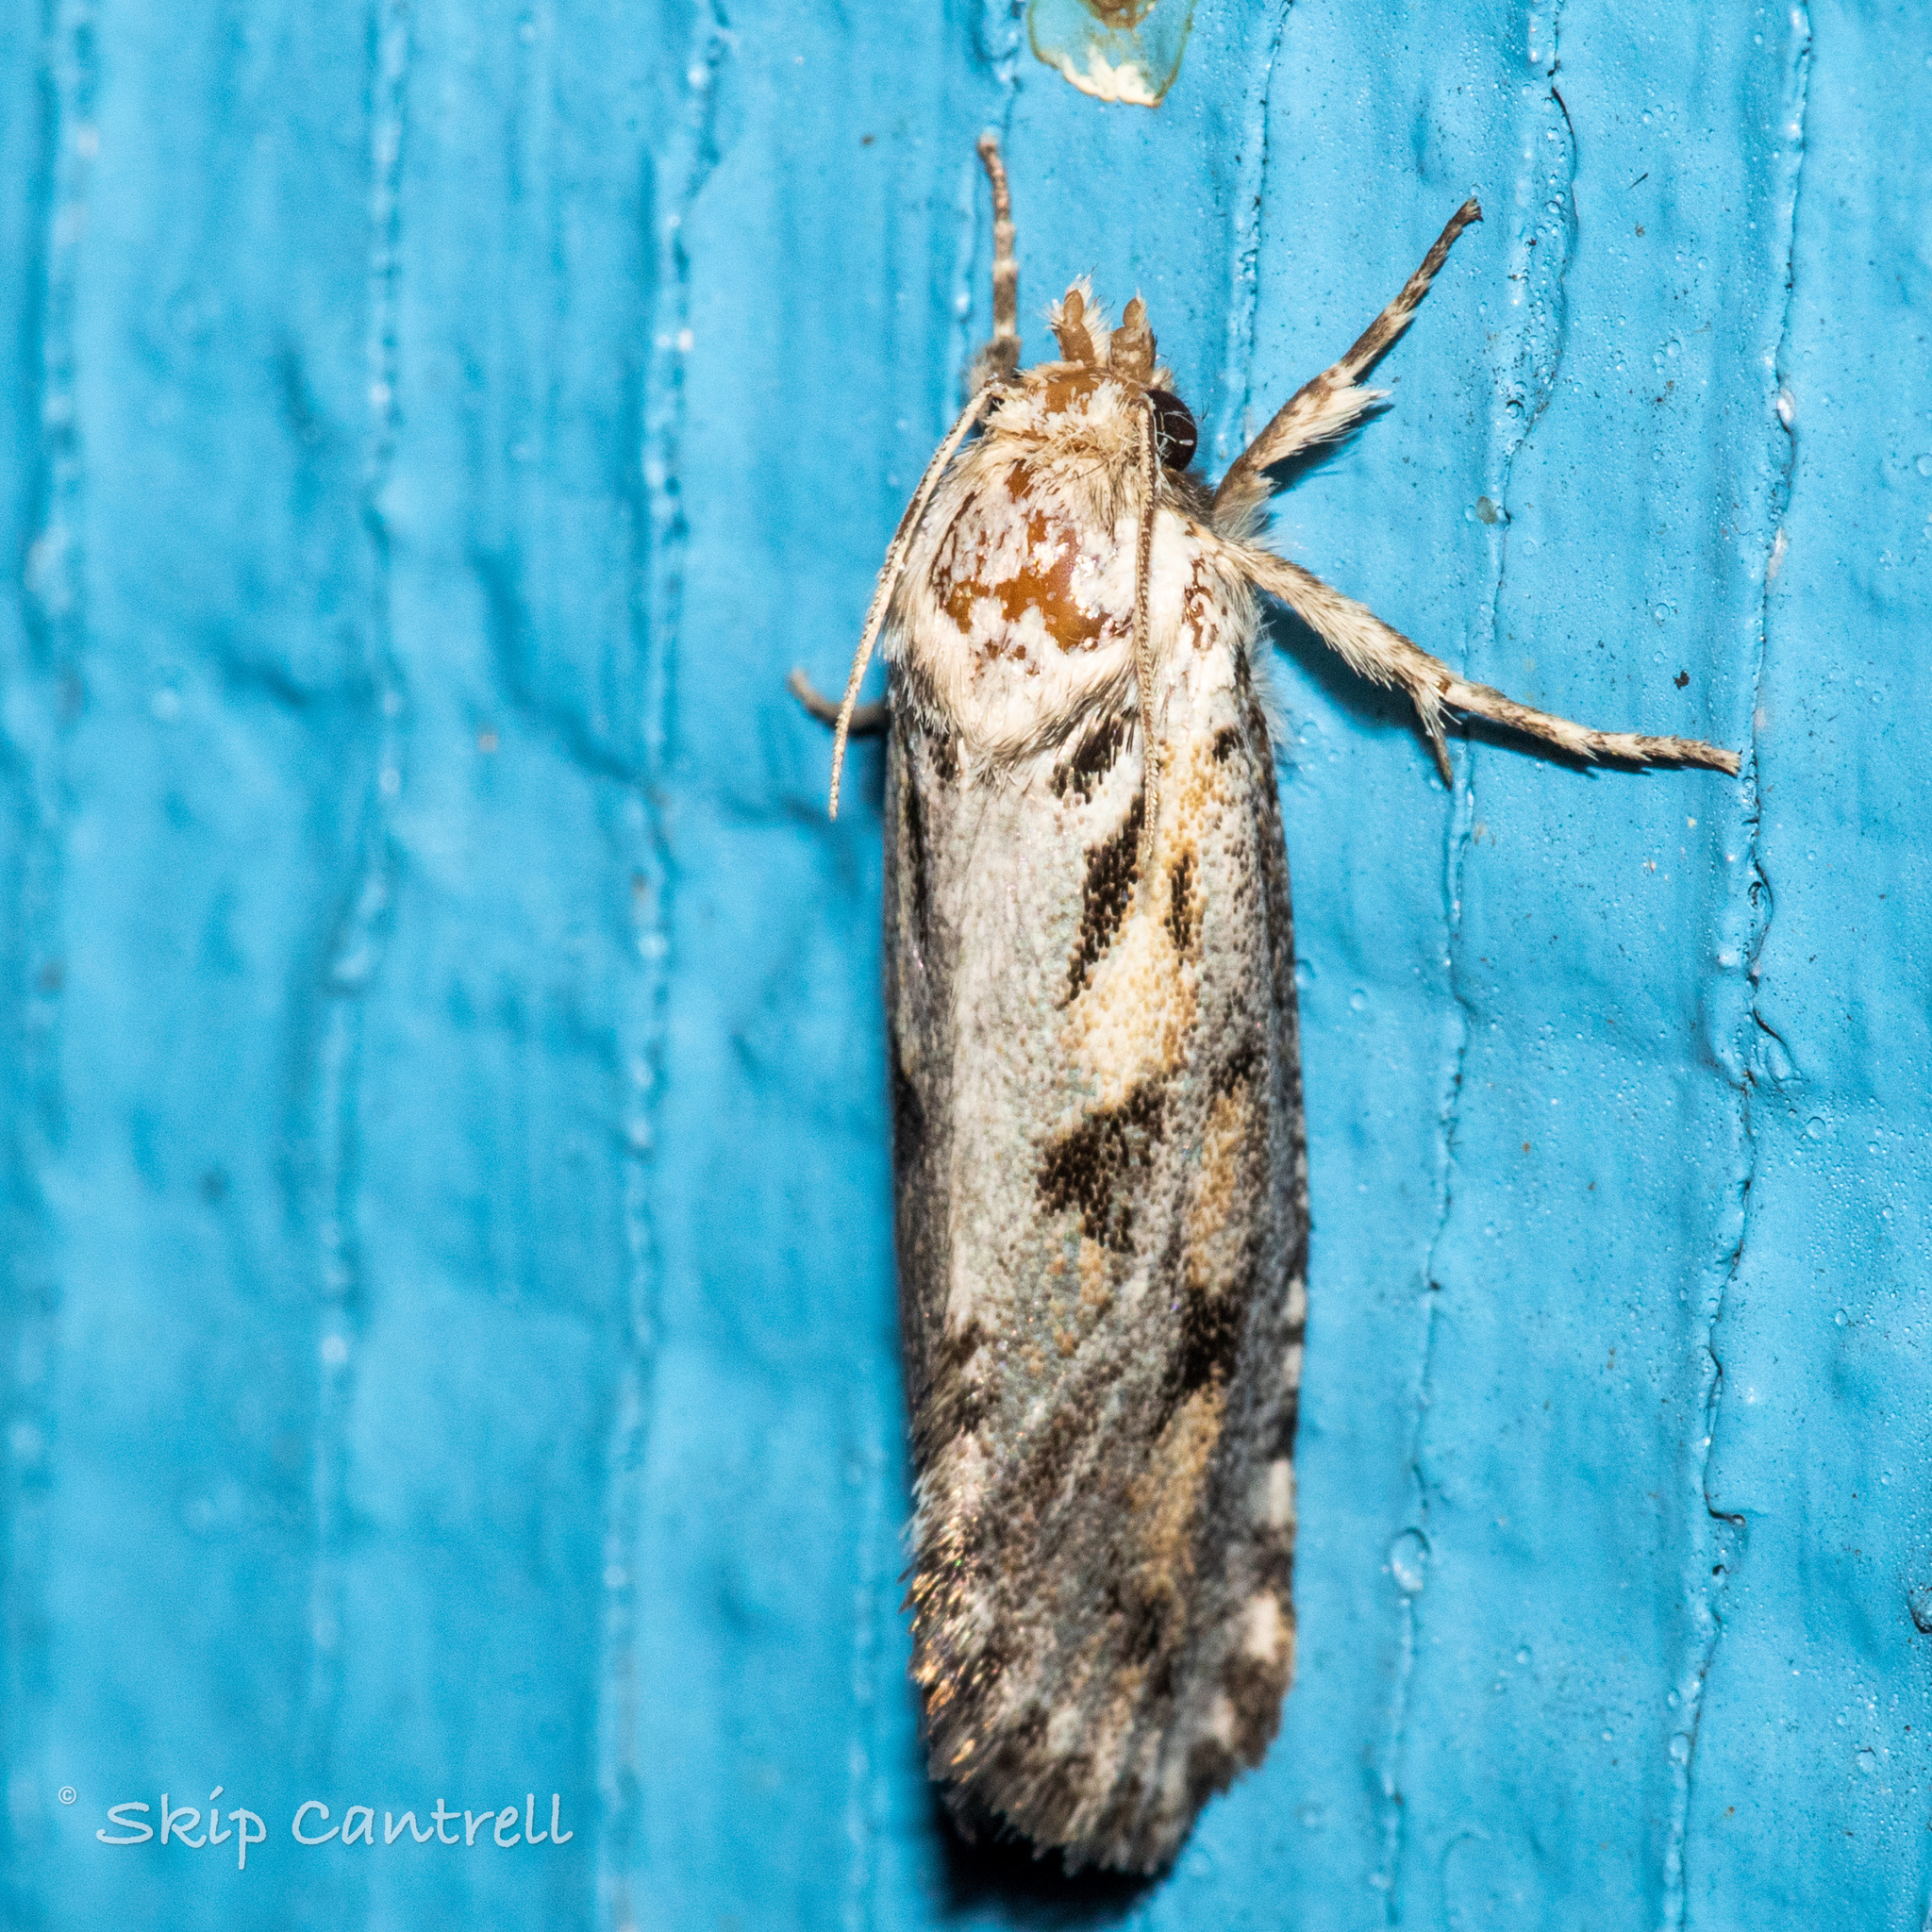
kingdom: Animalia
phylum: Arthropoda
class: Insecta
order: Lepidoptera
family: Tineidae
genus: Acrolophus
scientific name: Acrolophus popeanella
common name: Clemens' grass tubeworm moth
